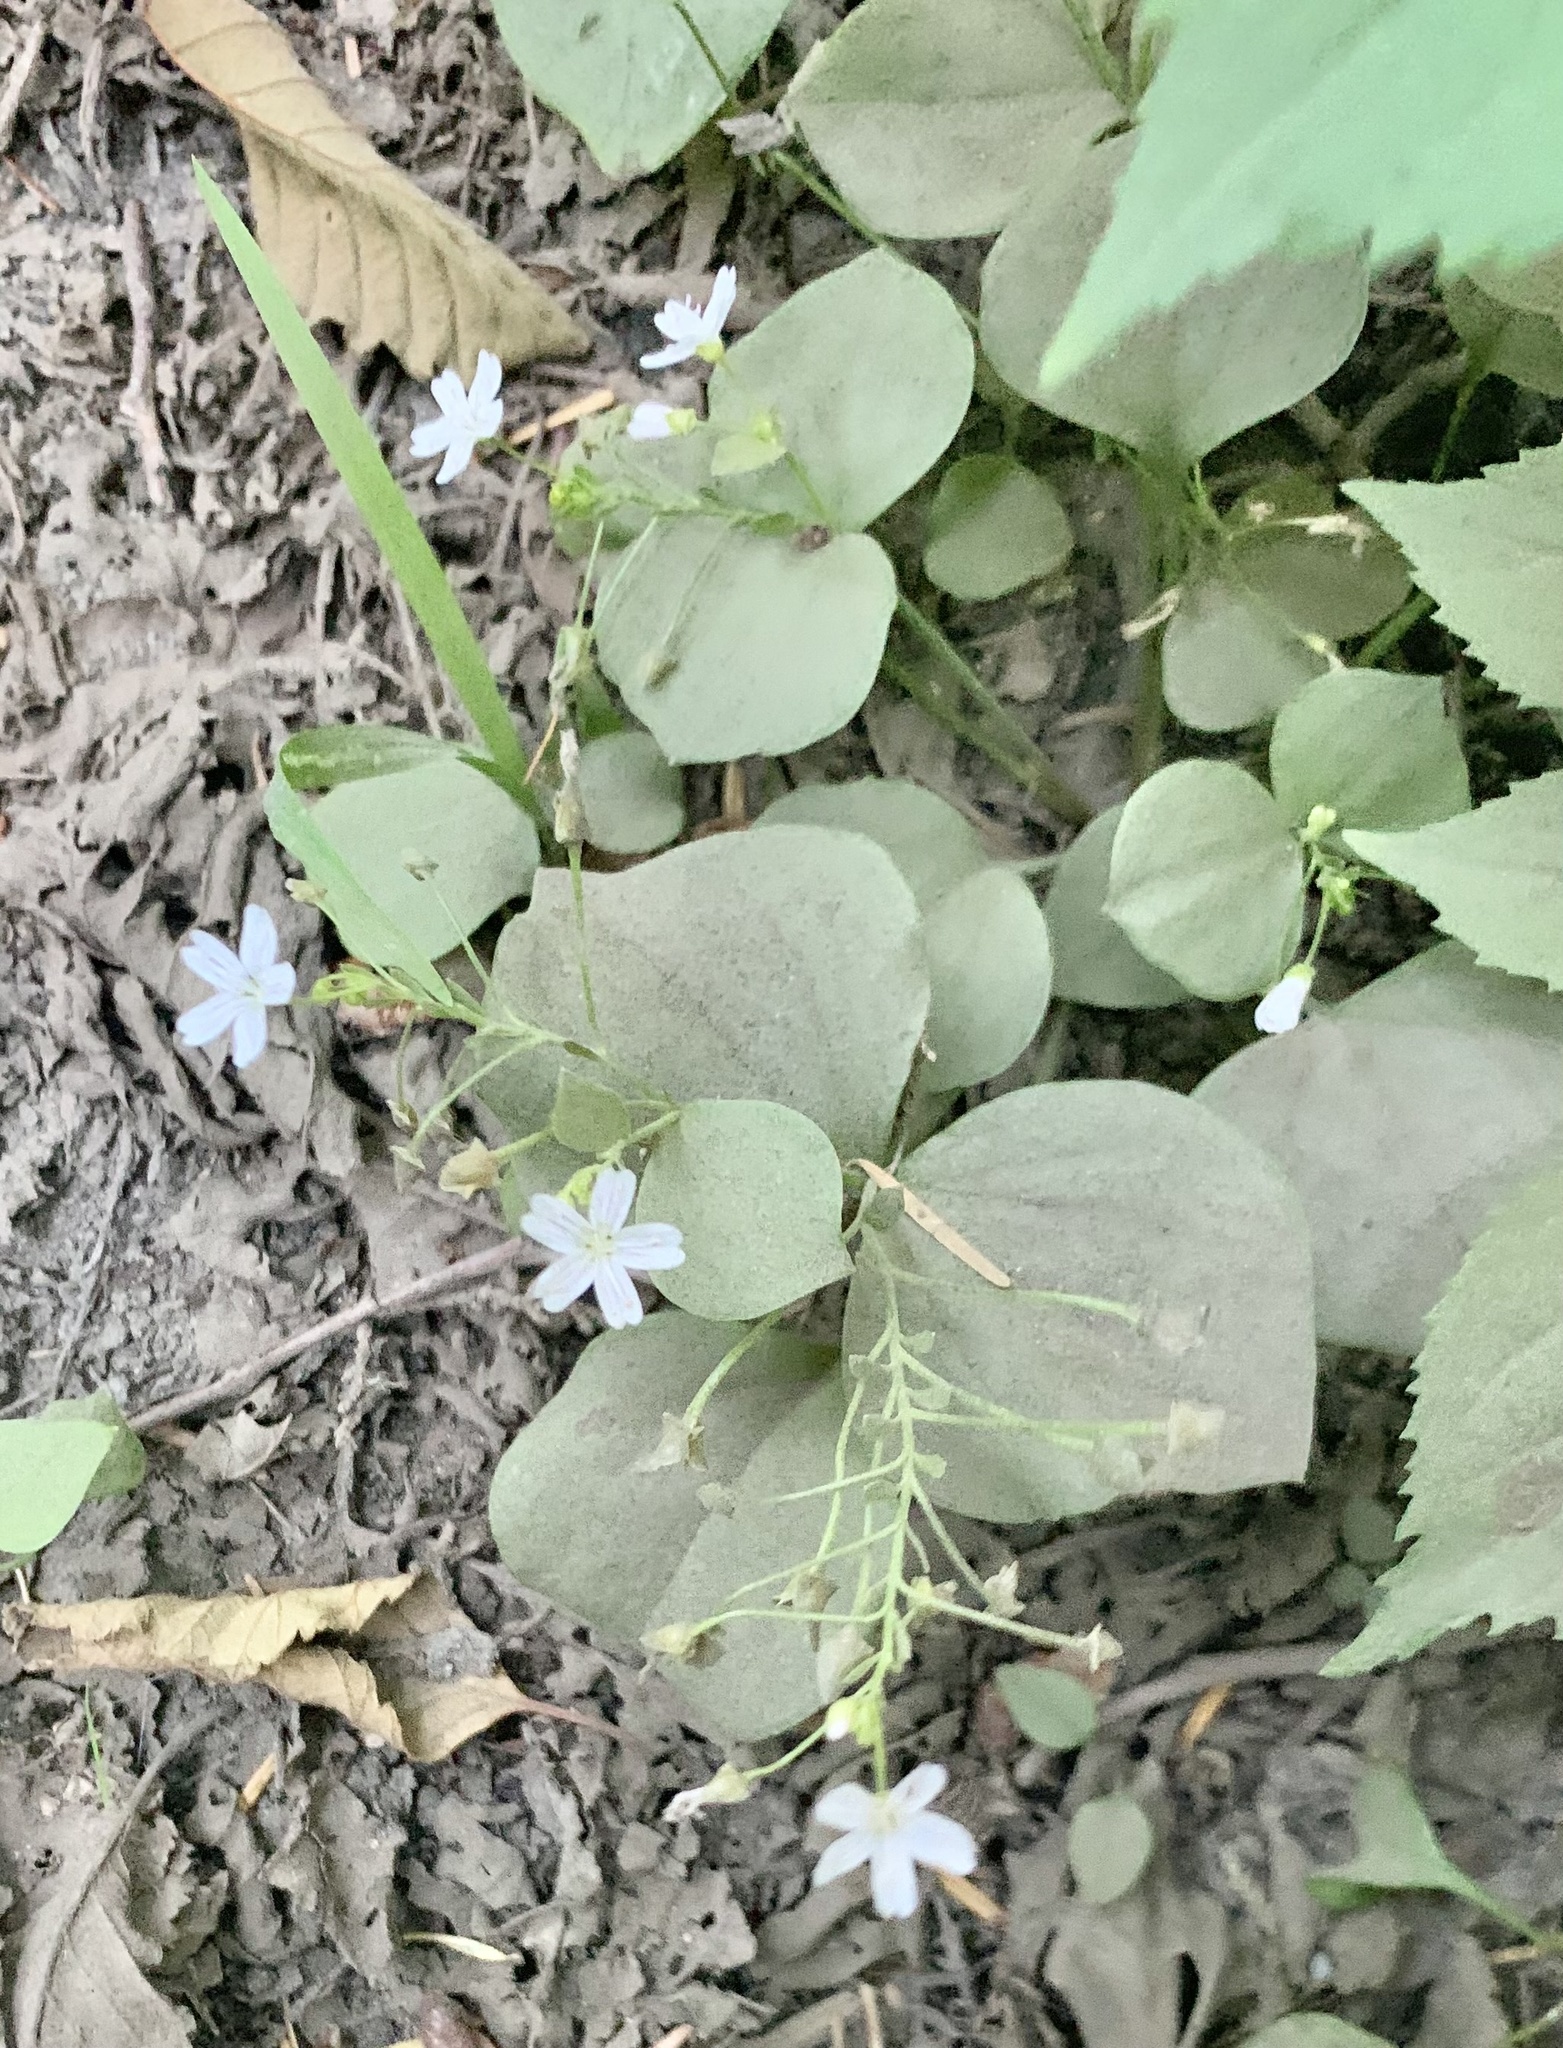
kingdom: Plantae
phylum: Tracheophyta
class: Magnoliopsida
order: Caryophyllales
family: Montiaceae
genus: Claytonia
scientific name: Claytonia sibirica
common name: Pink purslane
